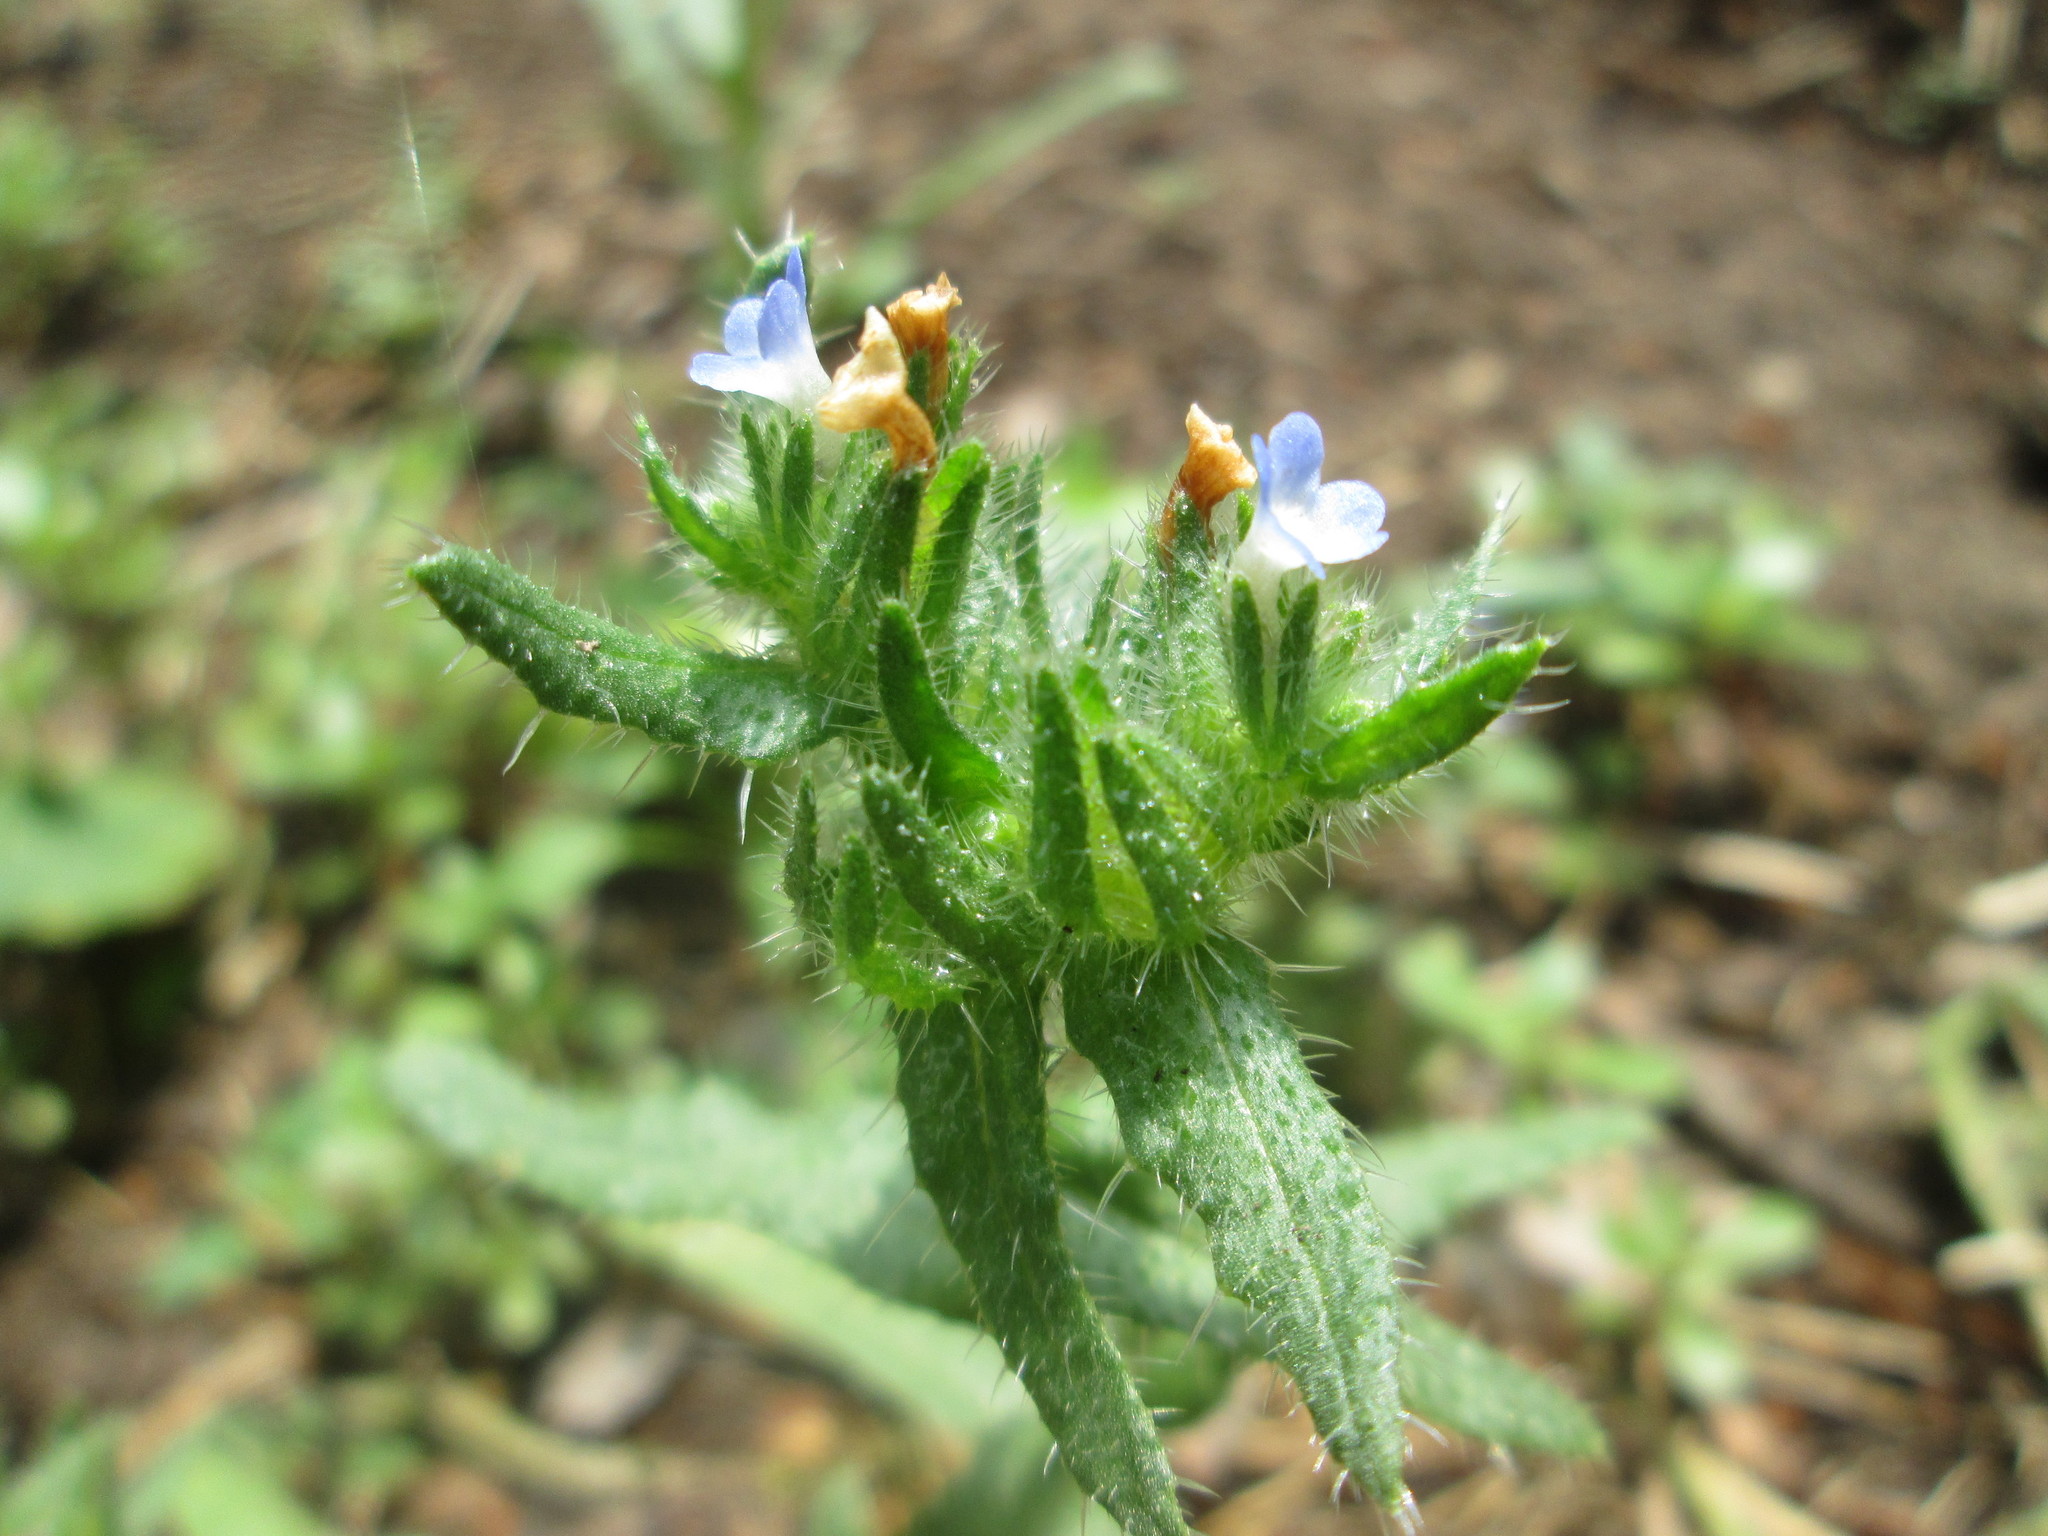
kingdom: Plantae
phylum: Tracheophyta
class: Magnoliopsida
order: Boraginales
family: Boraginaceae
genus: Lycopsis
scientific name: Lycopsis arvensis
